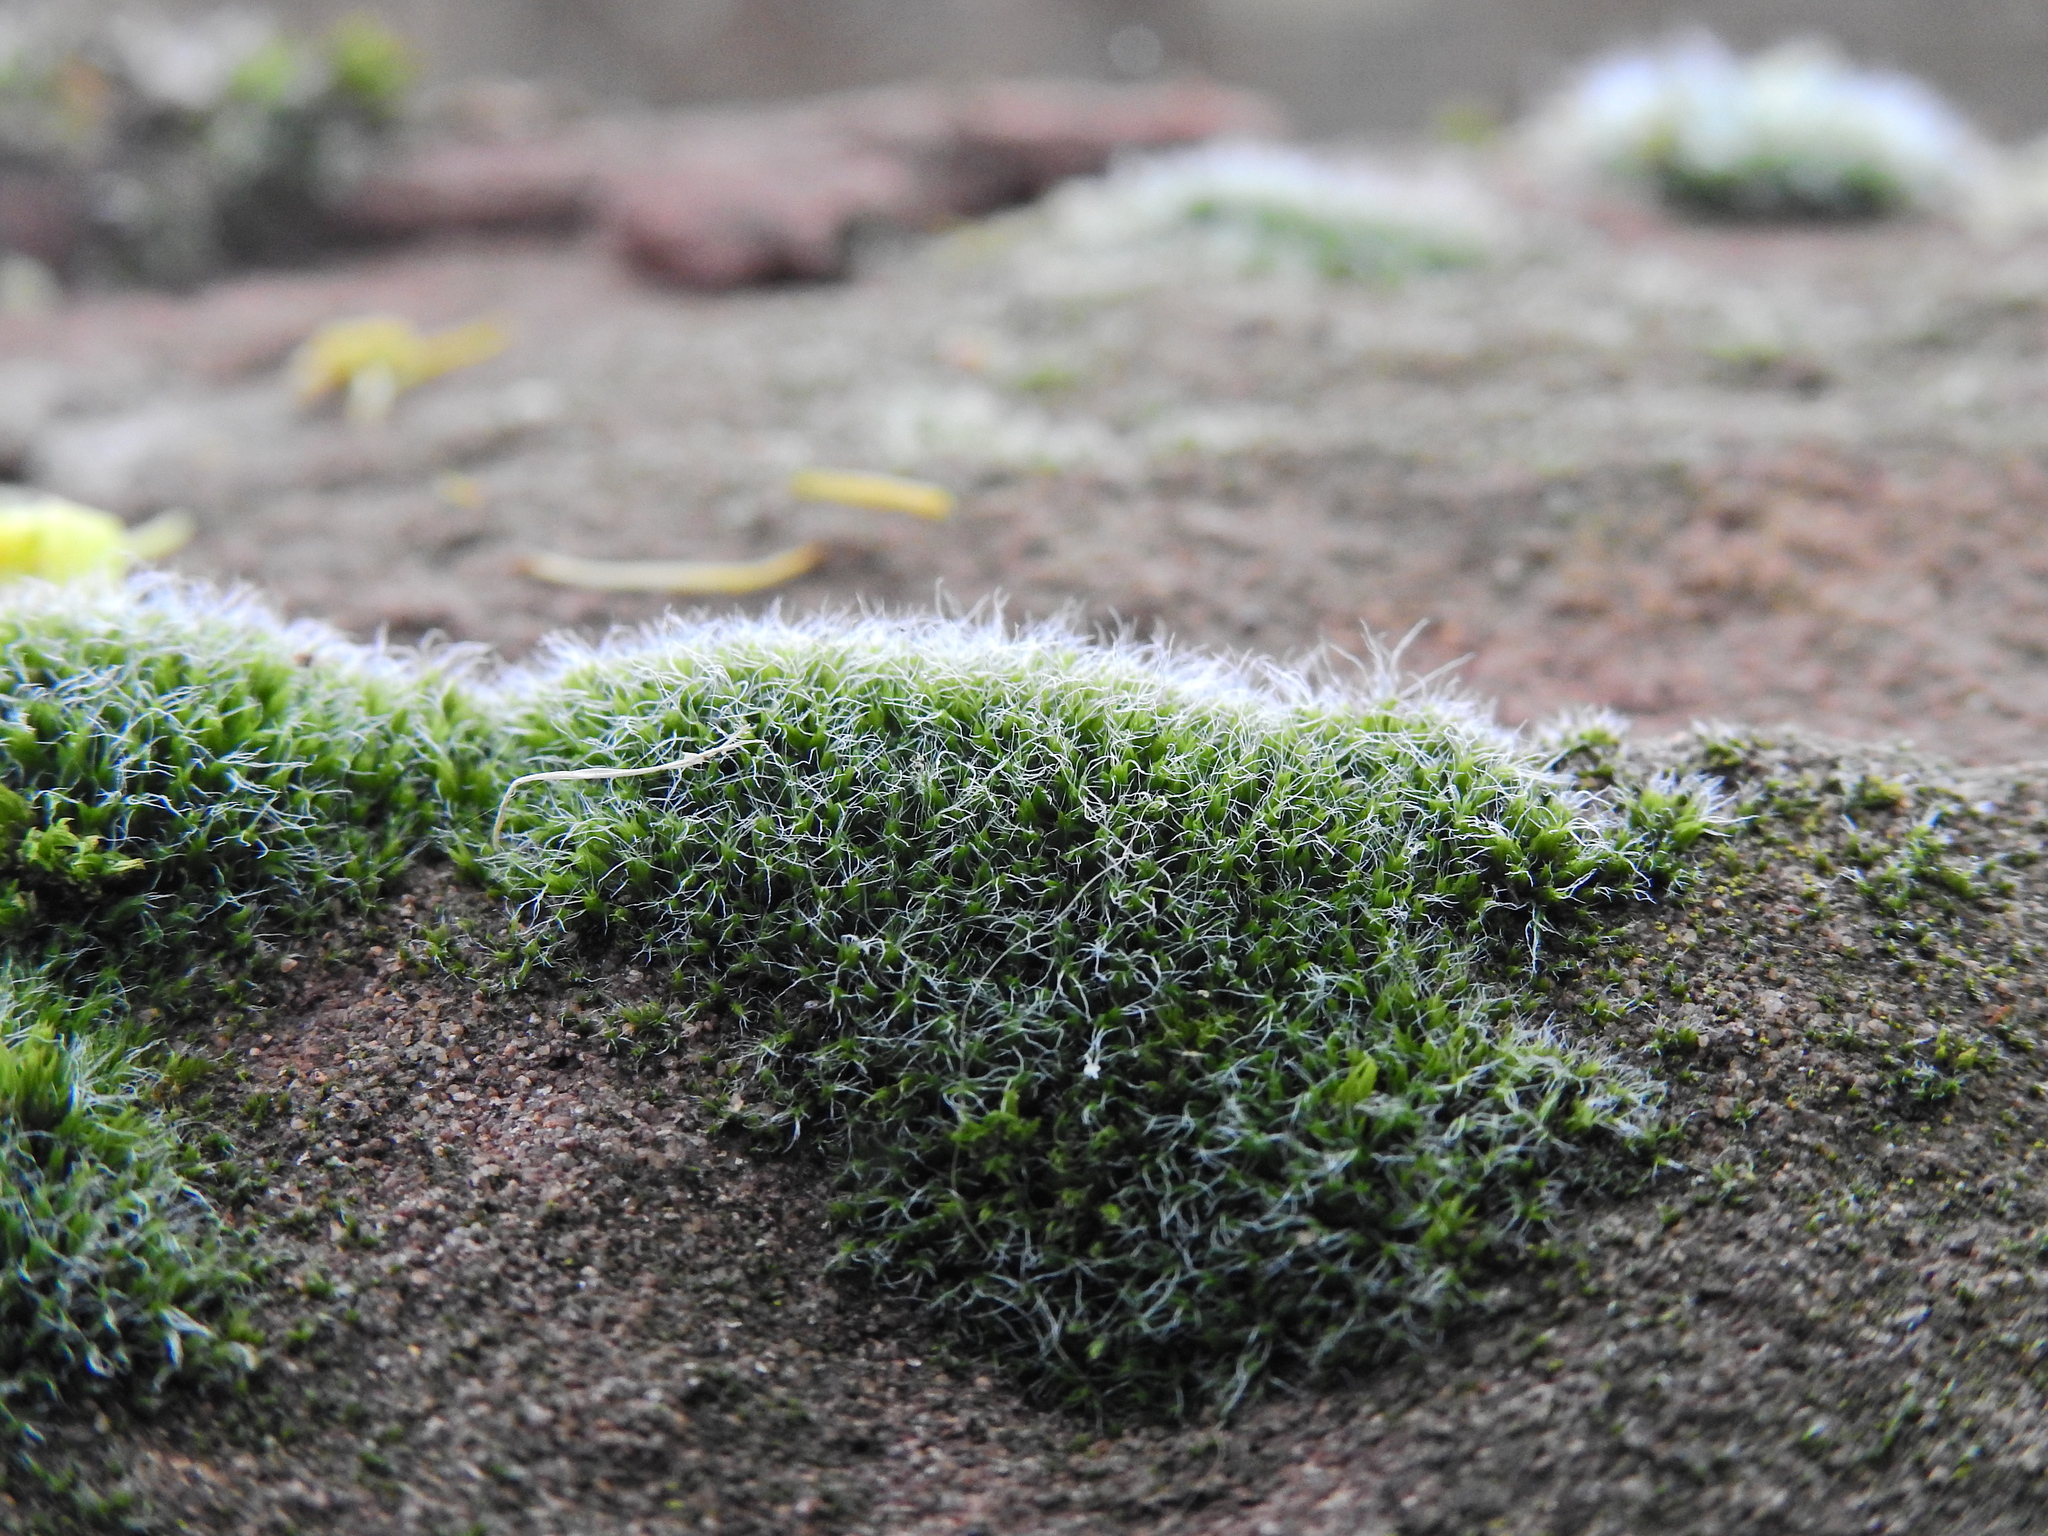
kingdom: Plantae
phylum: Bryophyta
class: Bryopsida
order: Grimmiales
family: Grimmiaceae
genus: Grimmia
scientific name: Grimmia pulvinata
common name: Grey-cushioned grimmia
